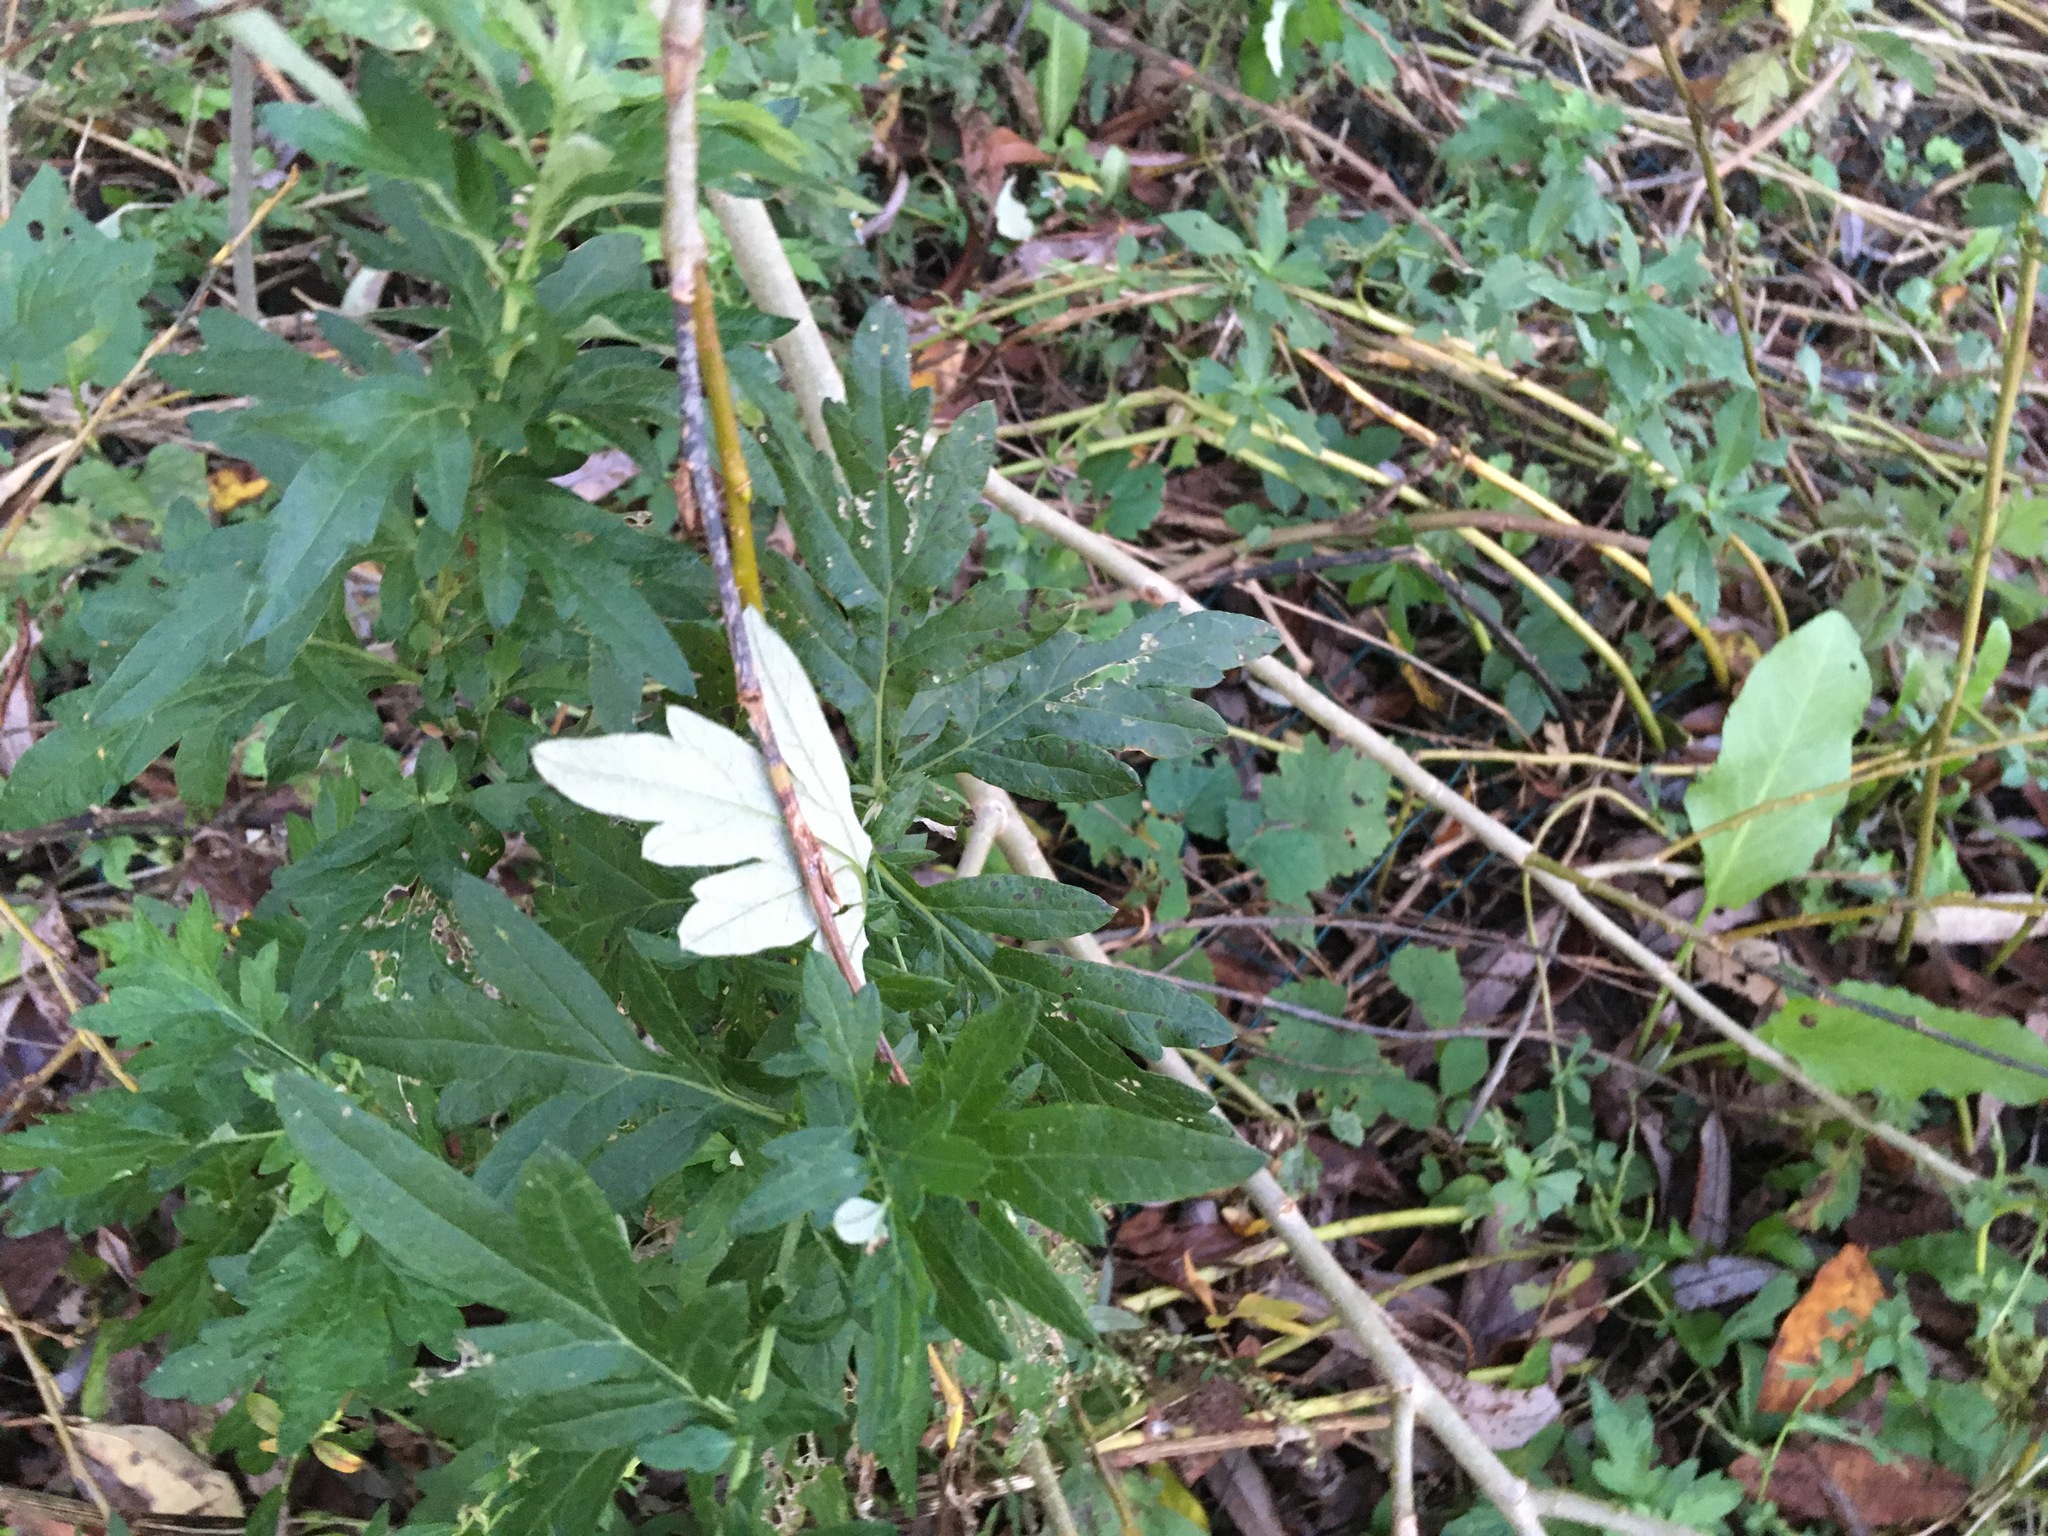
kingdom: Plantae
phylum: Tracheophyta
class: Magnoliopsida
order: Asterales
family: Asteraceae
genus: Artemisia
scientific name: Artemisia vulgaris
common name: Mugwort
